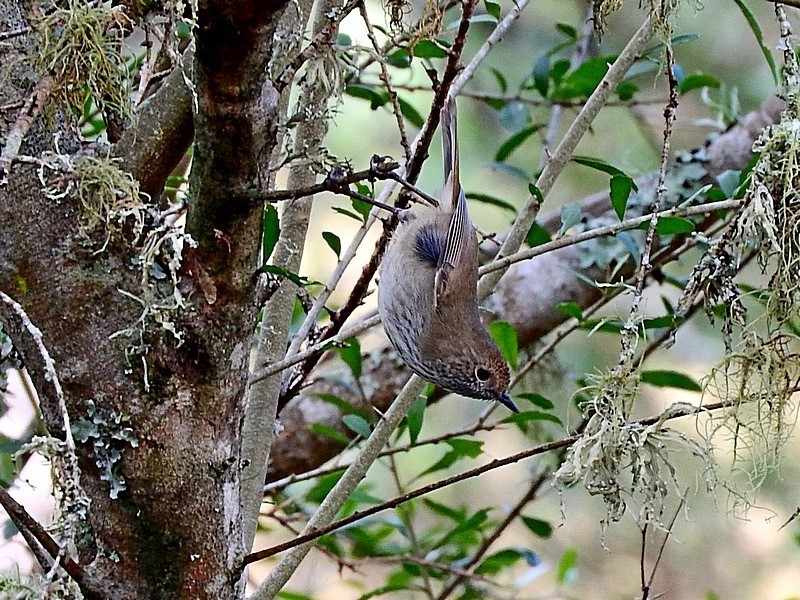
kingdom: Animalia
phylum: Chordata
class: Aves
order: Passeriformes
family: Acanthizidae
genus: Acanthiza
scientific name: Acanthiza pusilla
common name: Brown thornbill
